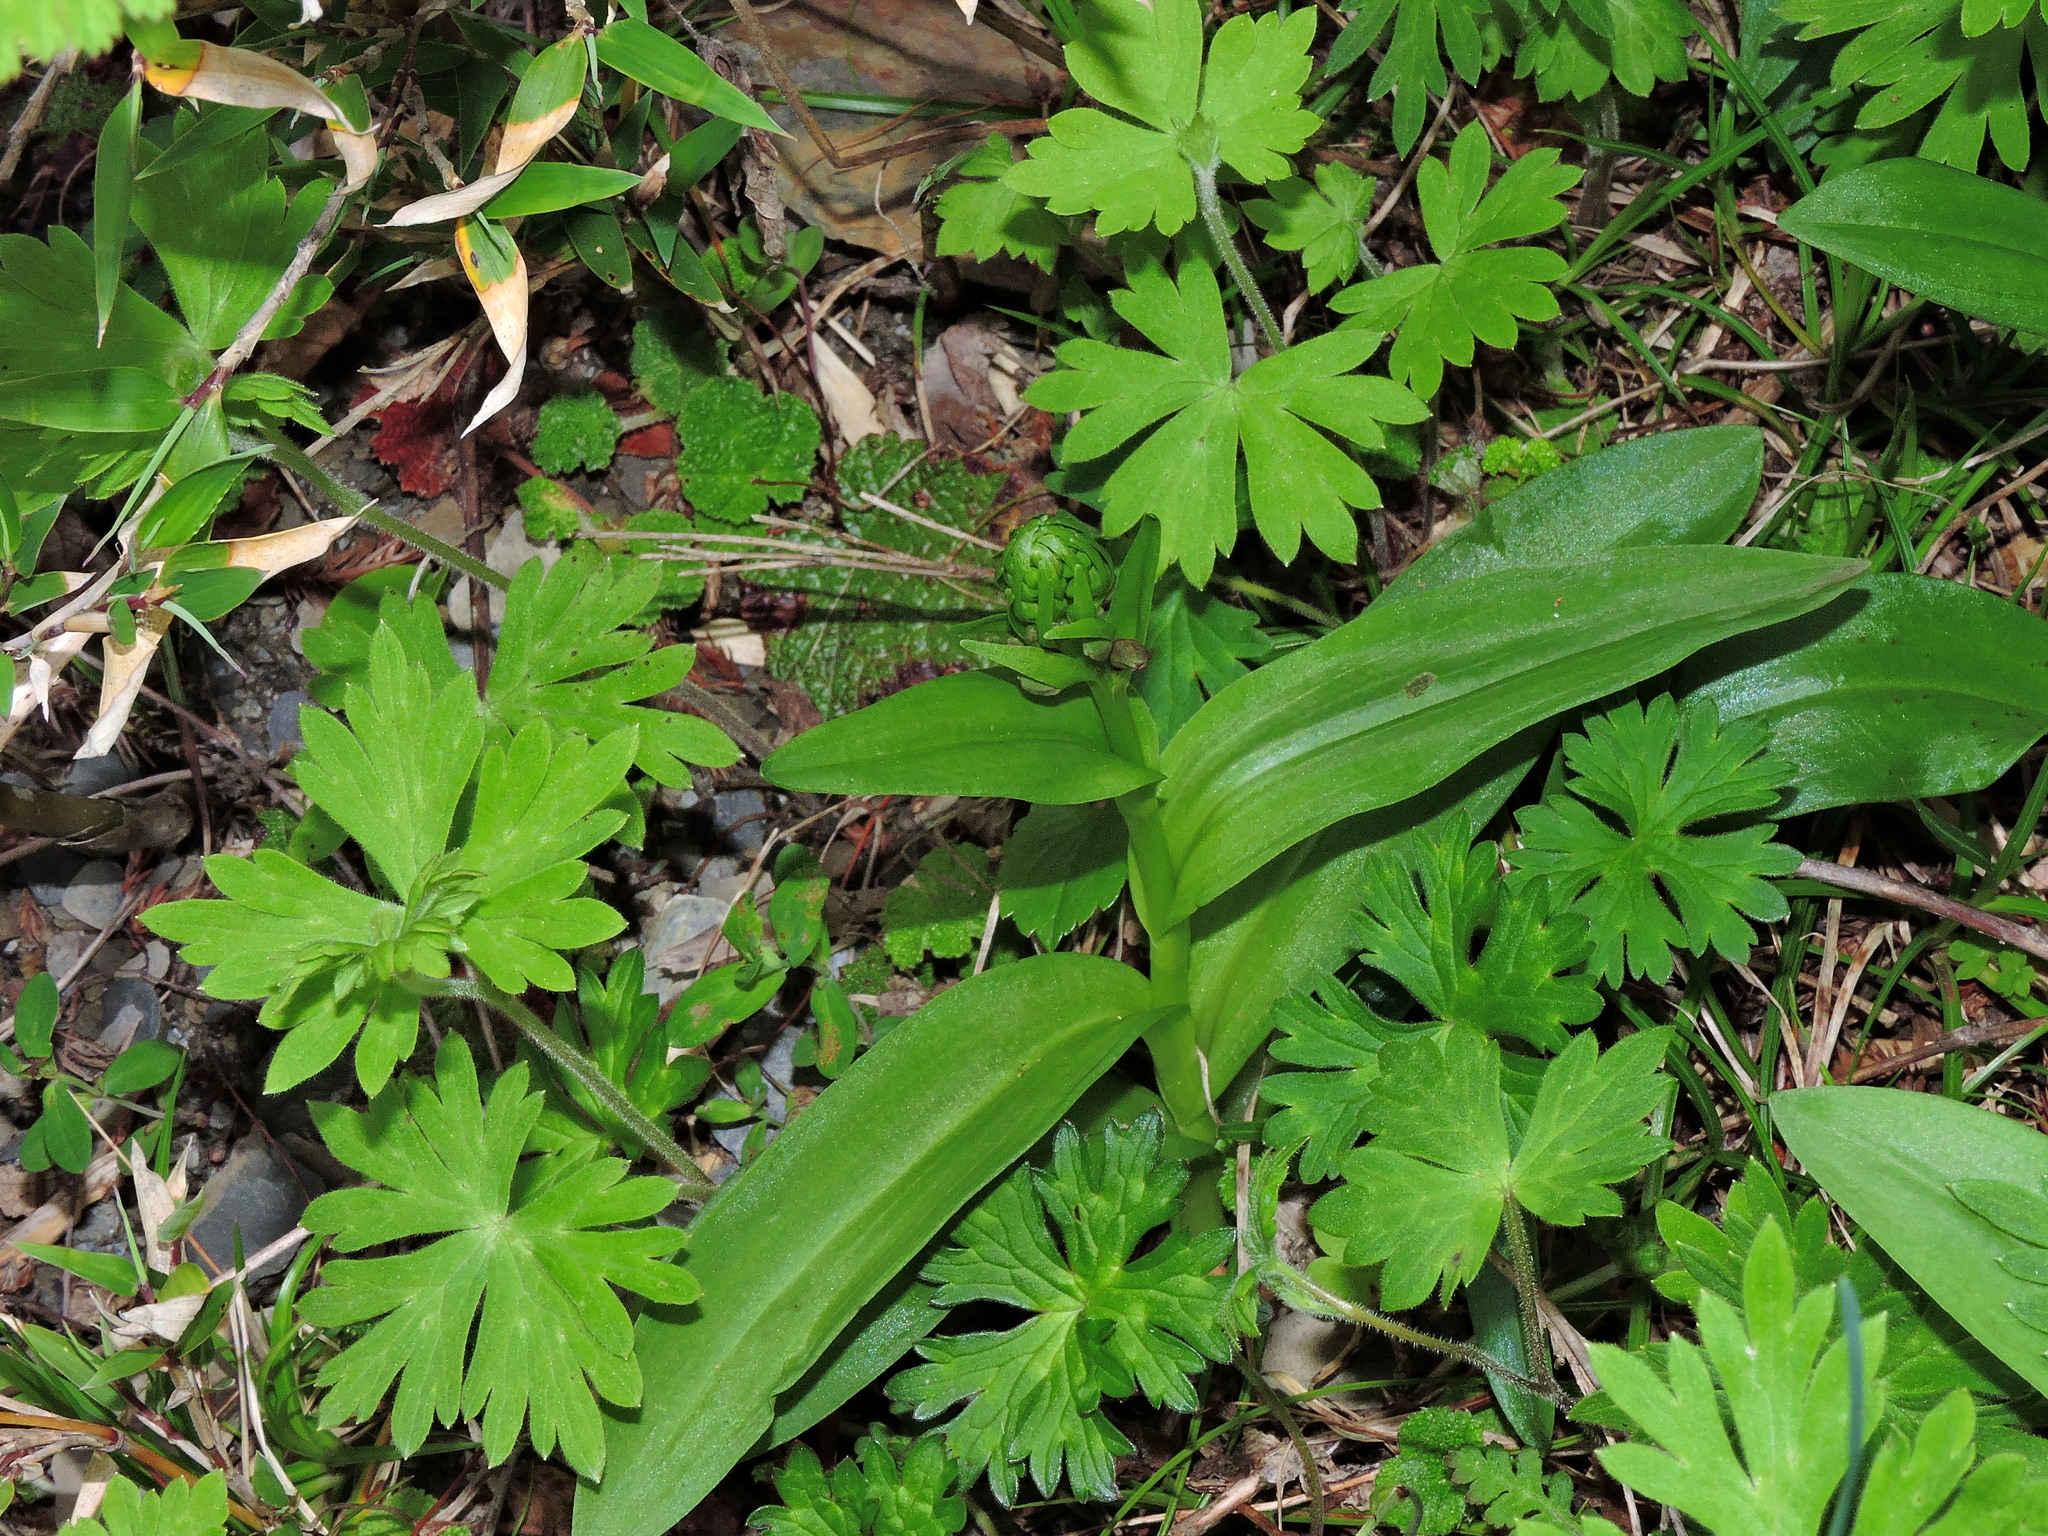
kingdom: Plantae
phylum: Tracheophyta
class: Liliopsida
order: Asparagales
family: Orchidaceae
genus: Dactylorhiza
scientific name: Dactylorhiza viridis
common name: Longbract frog orchid
